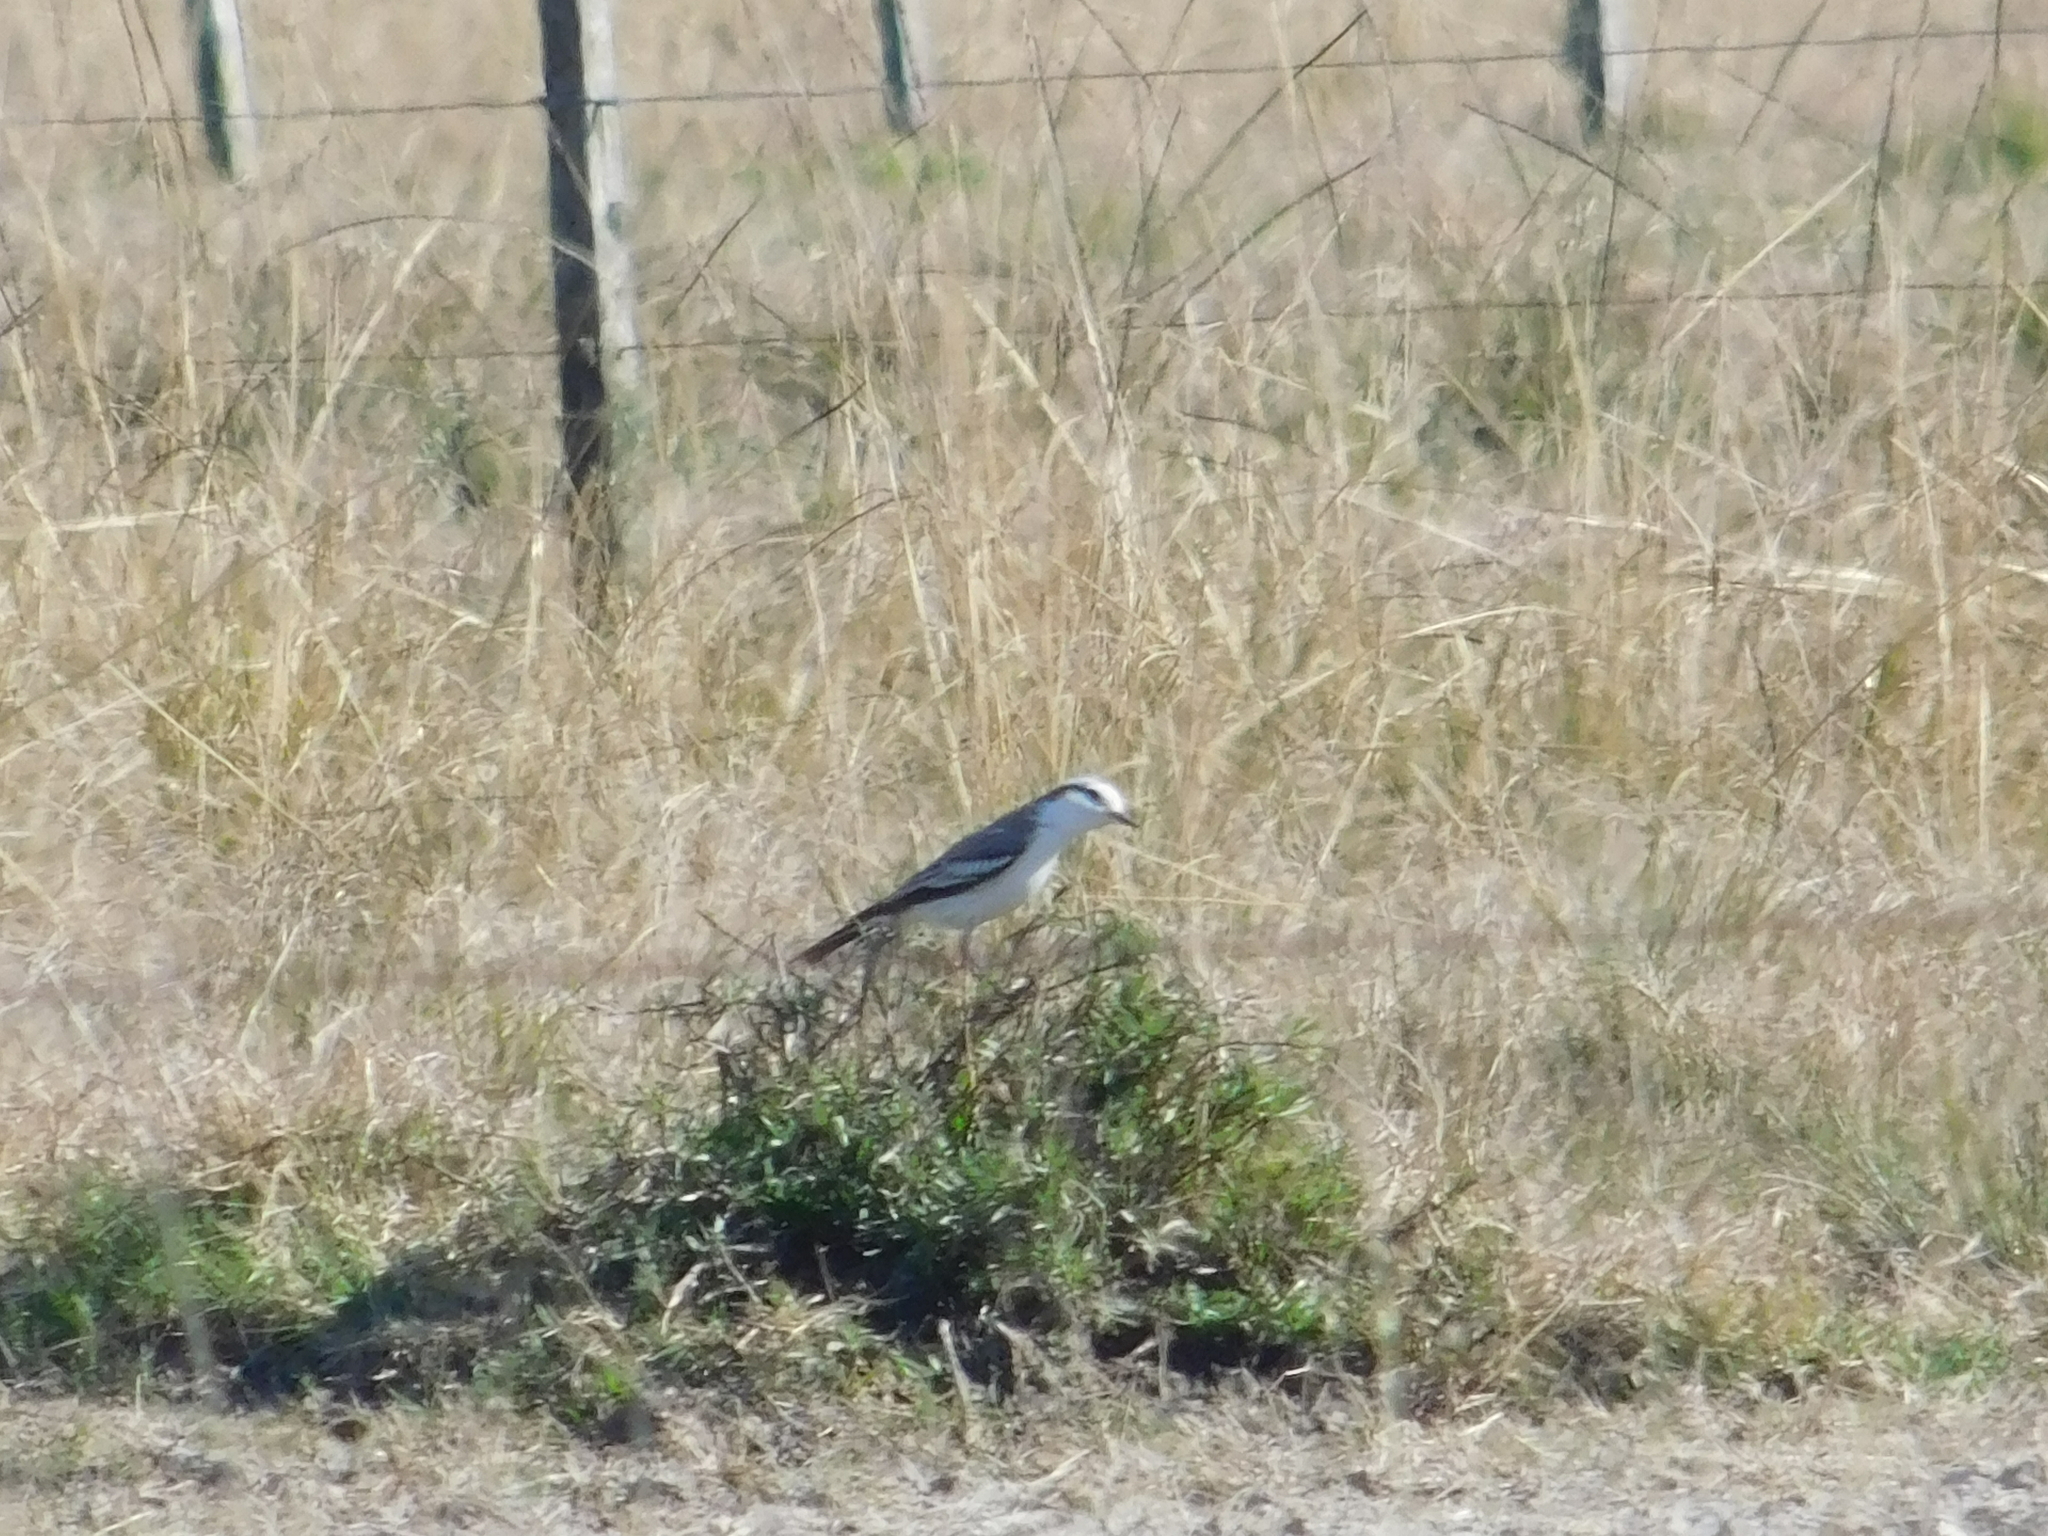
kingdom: Animalia
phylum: Chordata
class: Aves
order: Passeriformes
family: Tyrannidae
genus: Xolmis
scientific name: Xolmis coronatus
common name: Black-crowned monjita
